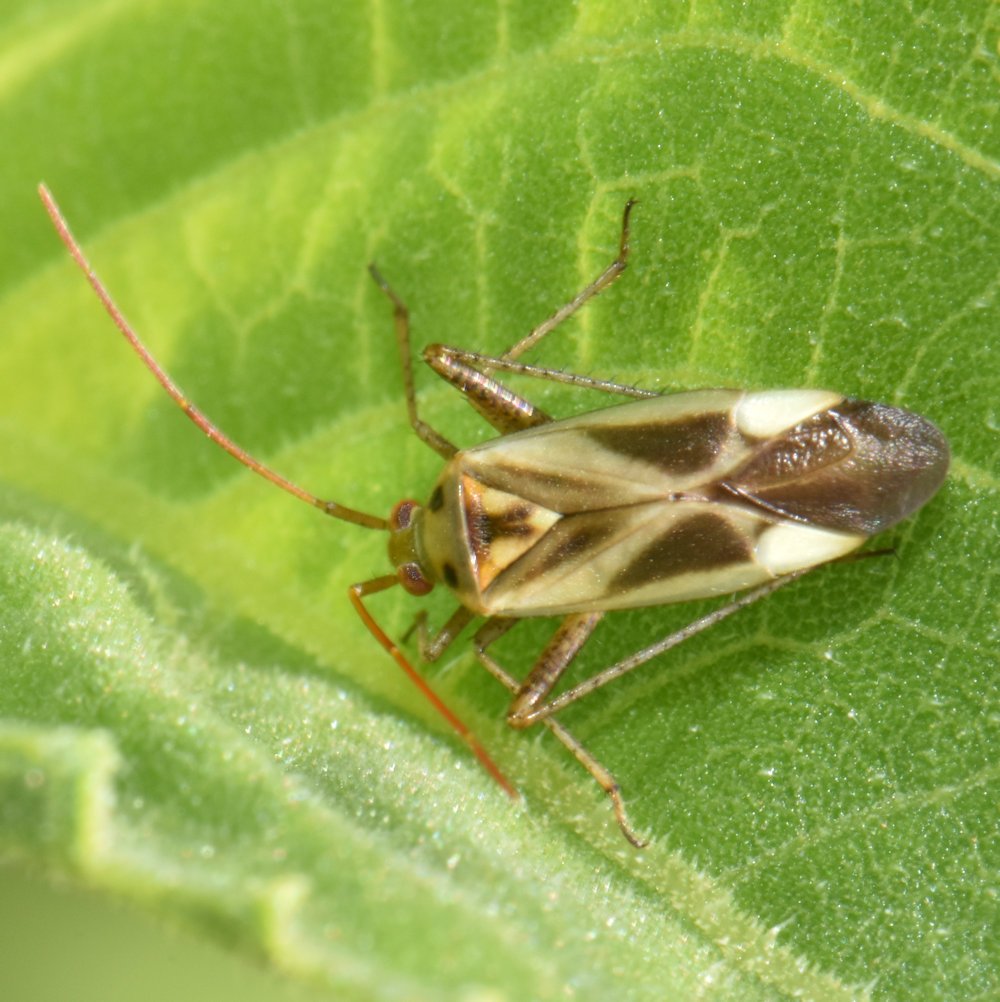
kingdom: Animalia
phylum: Arthropoda
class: Insecta
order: Hemiptera
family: Miridae
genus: Adelphocoris
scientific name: Adelphocoris lineolatus
